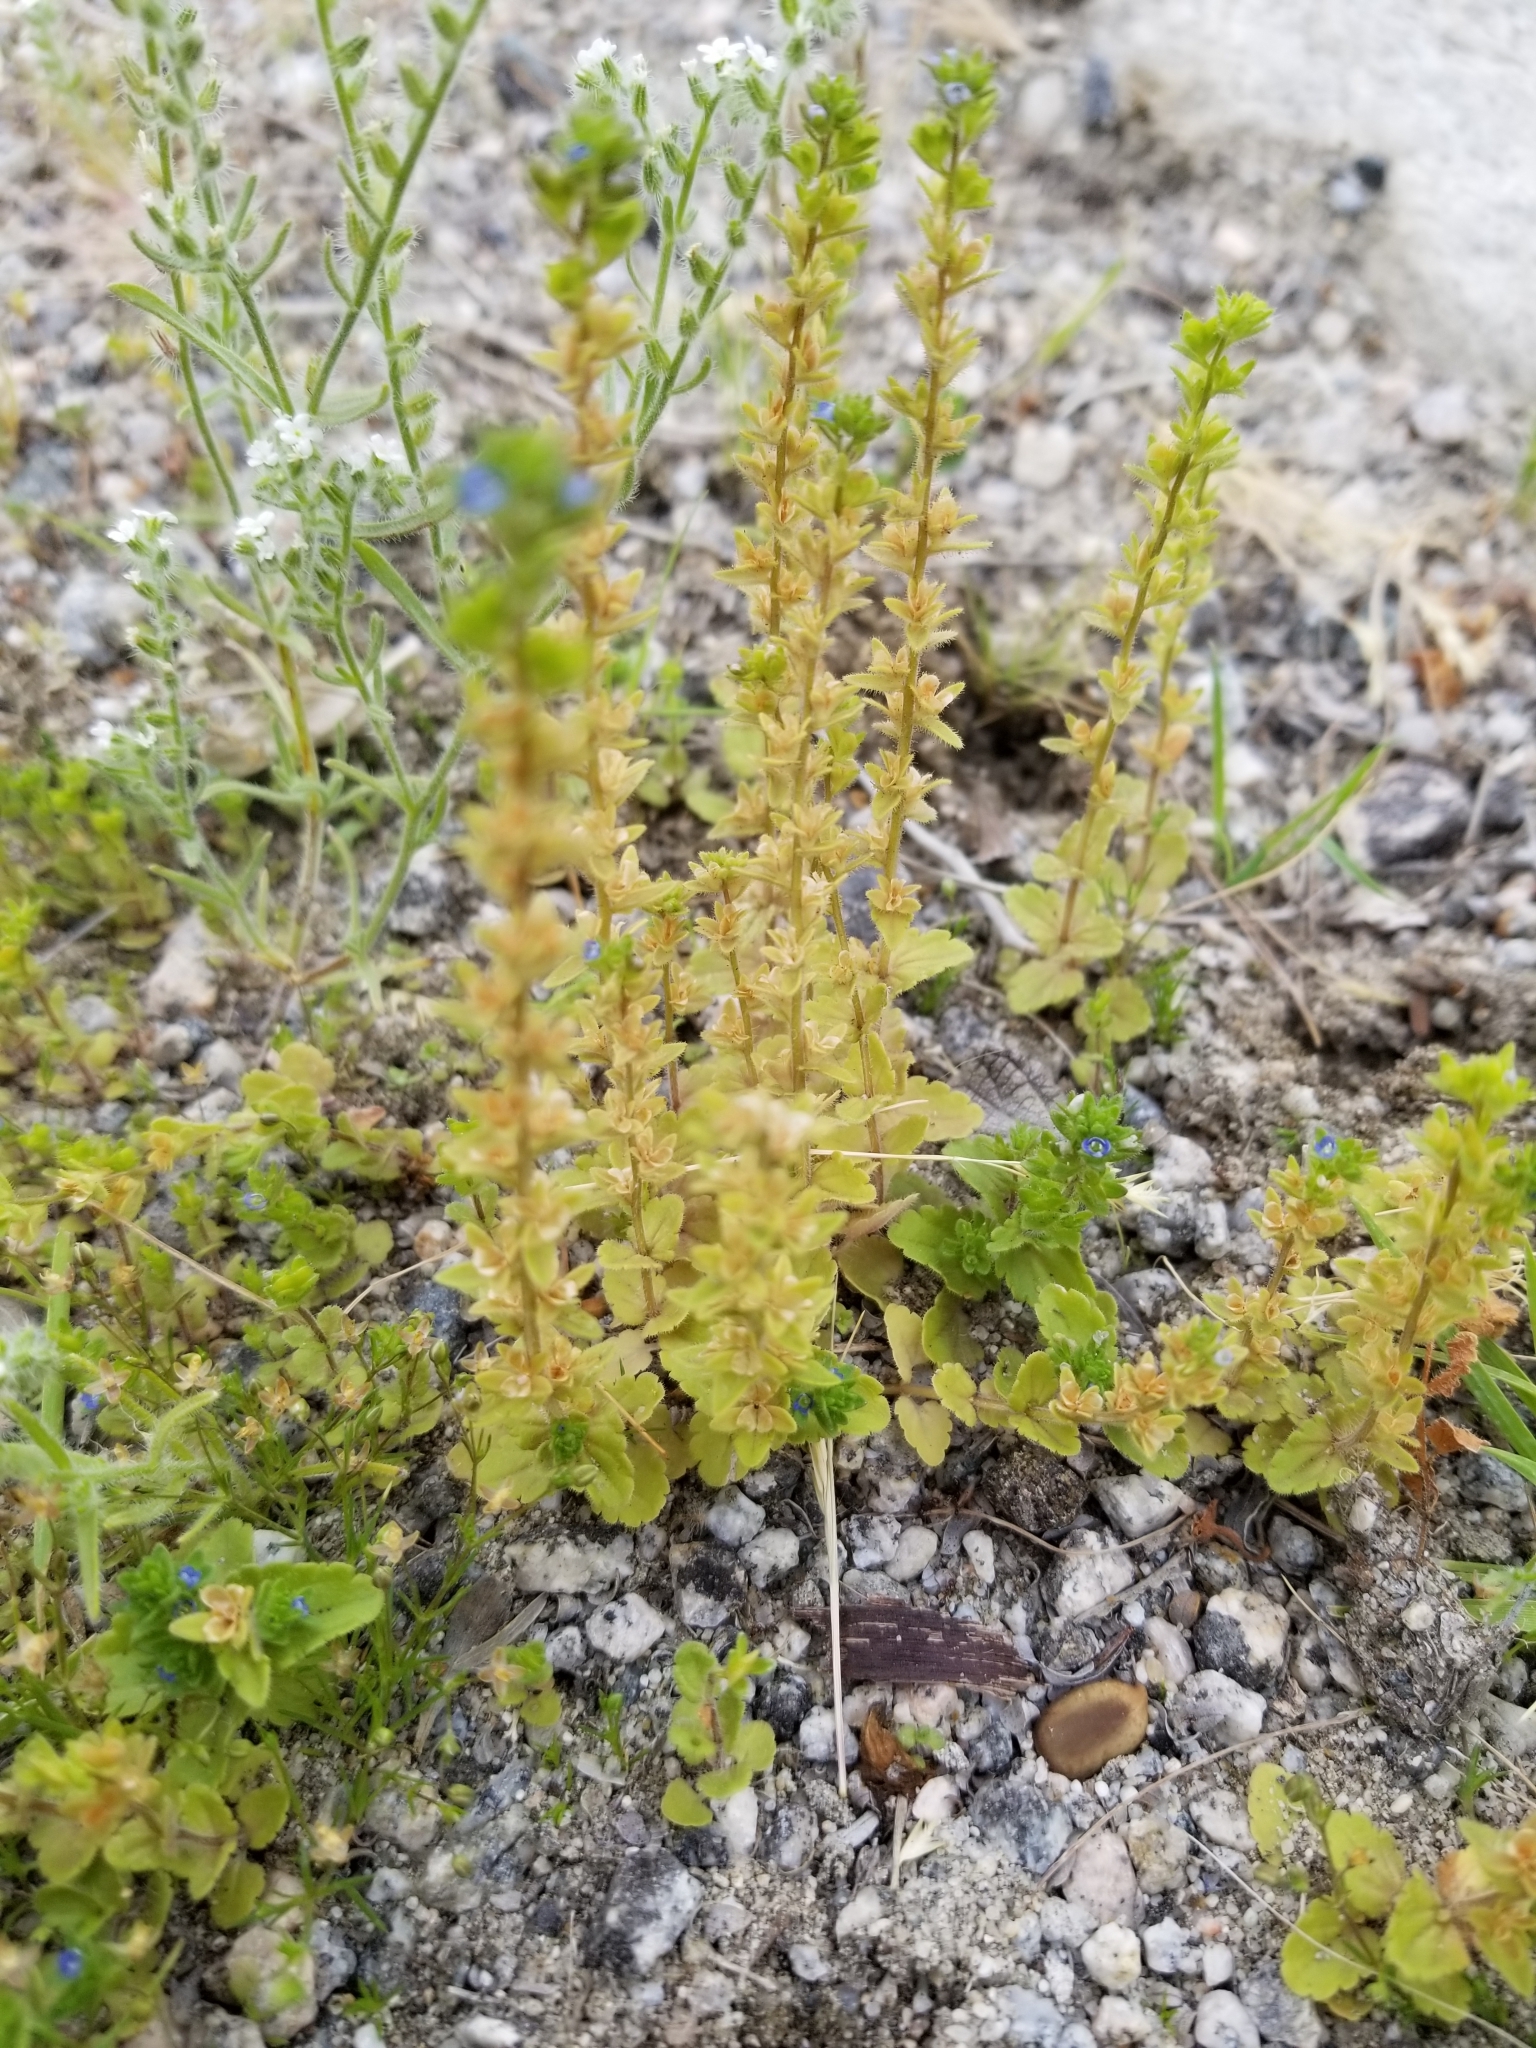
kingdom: Plantae
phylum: Tracheophyta
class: Magnoliopsida
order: Lamiales
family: Plantaginaceae
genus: Veronica
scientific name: Veronica arvensis
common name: Corn speedwell
